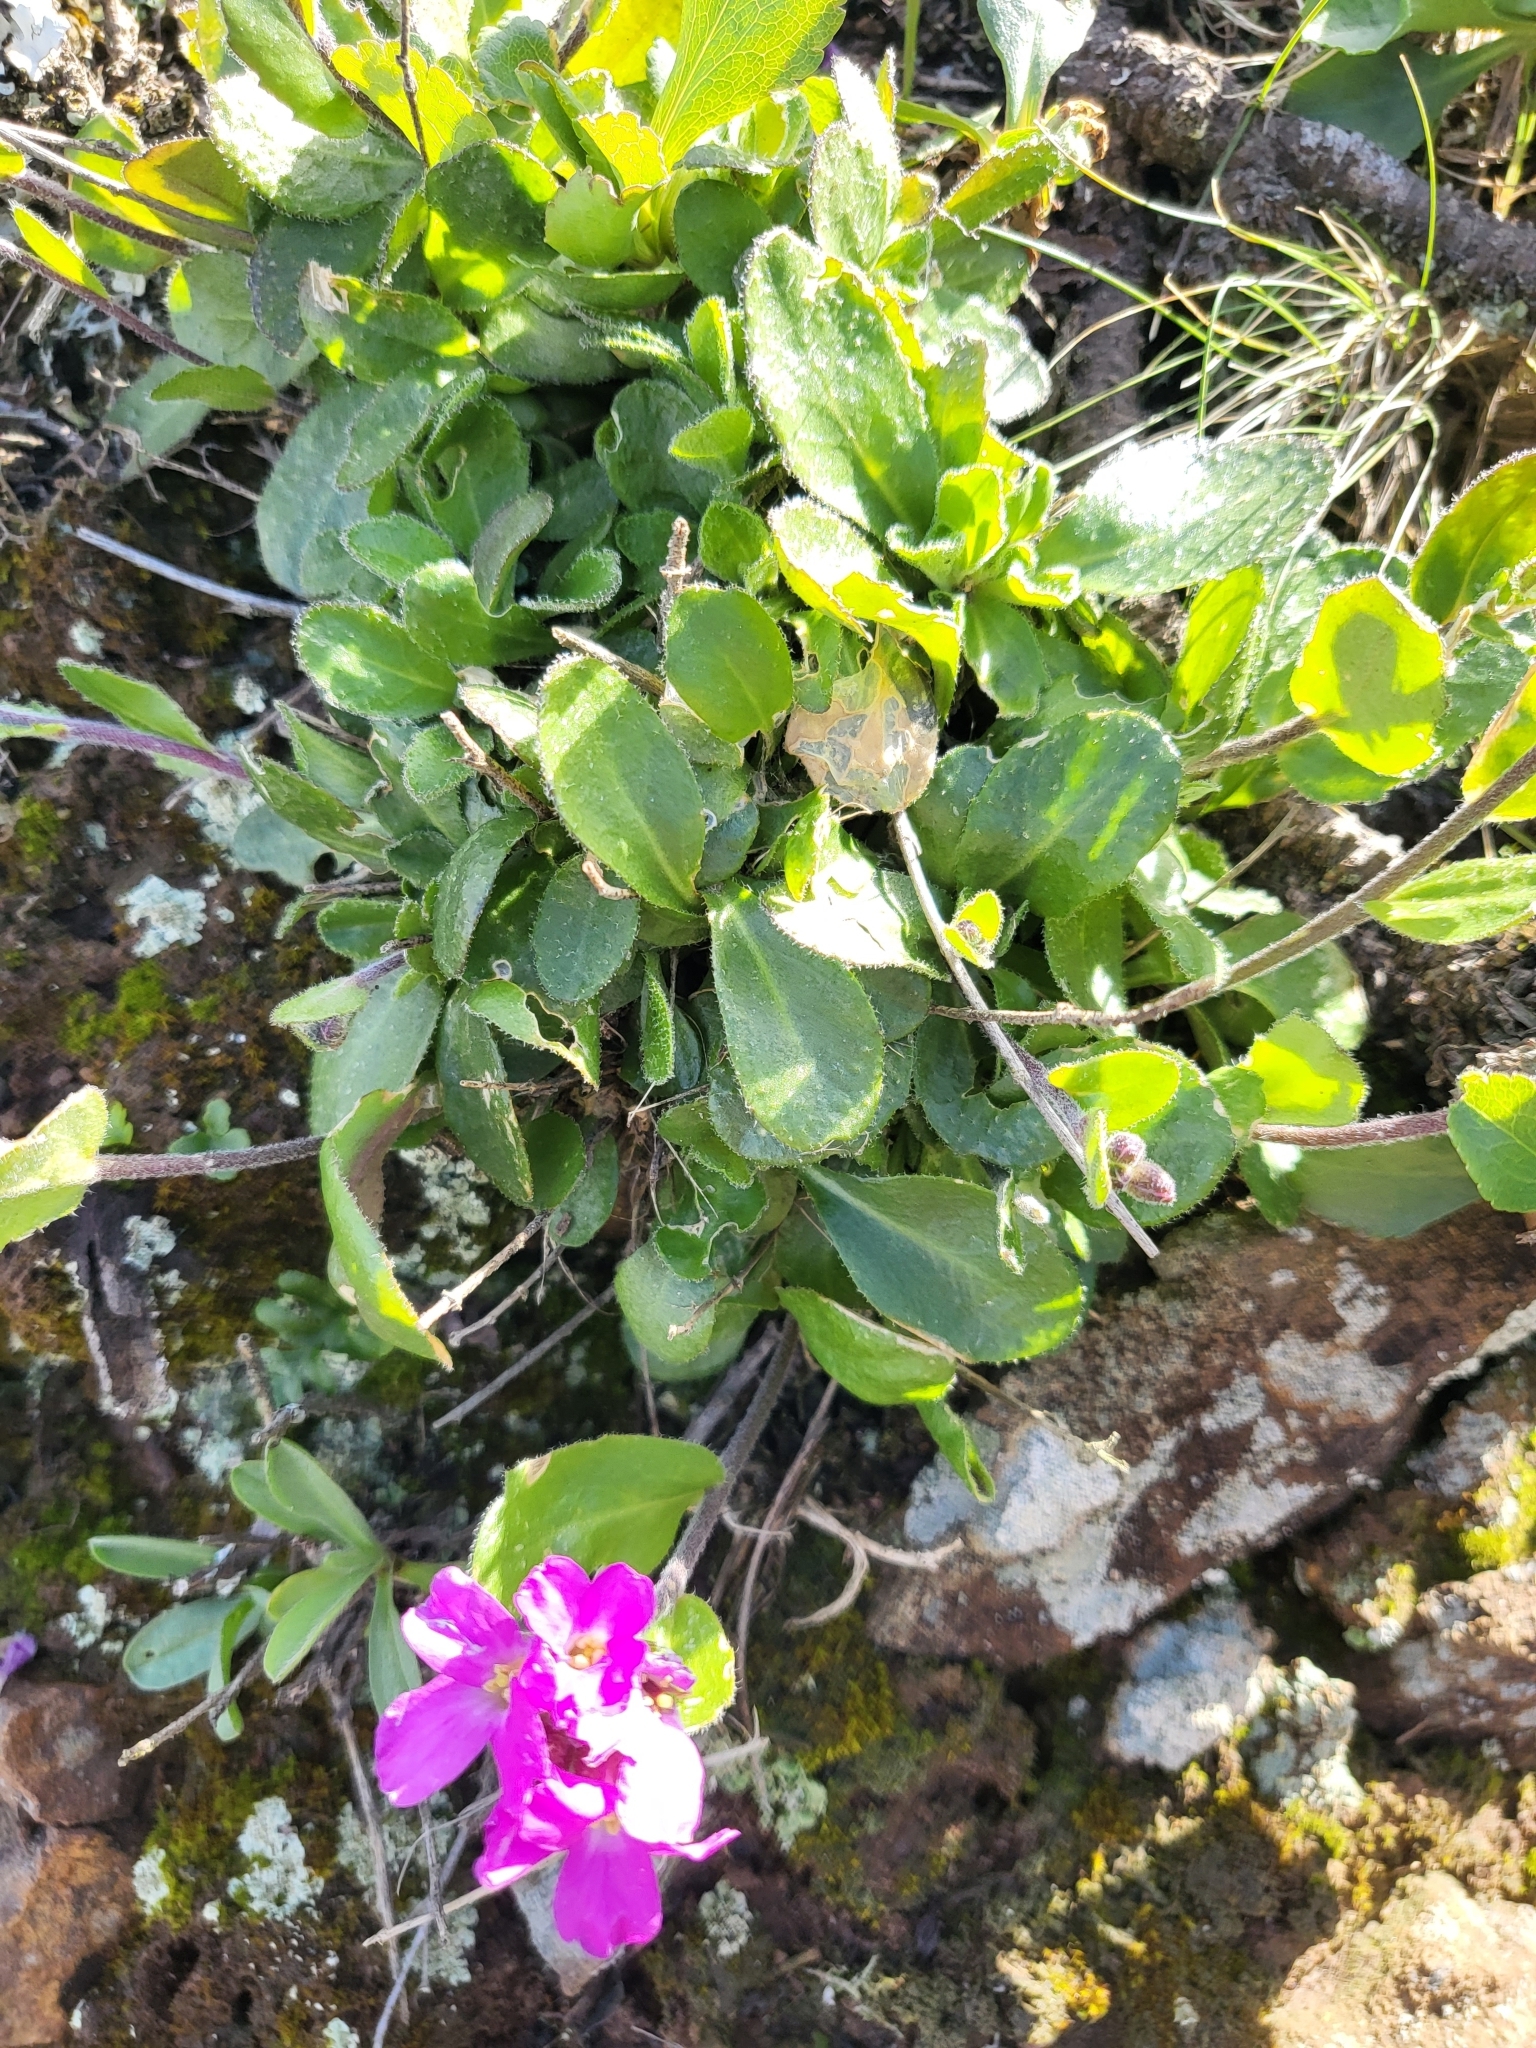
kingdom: Plantae
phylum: Tracheophyta
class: Magnoliopsida
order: Brassicales
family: Brassicaceae
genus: Arabis
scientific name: Arabis blepharophylla
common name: Rose rockcress
